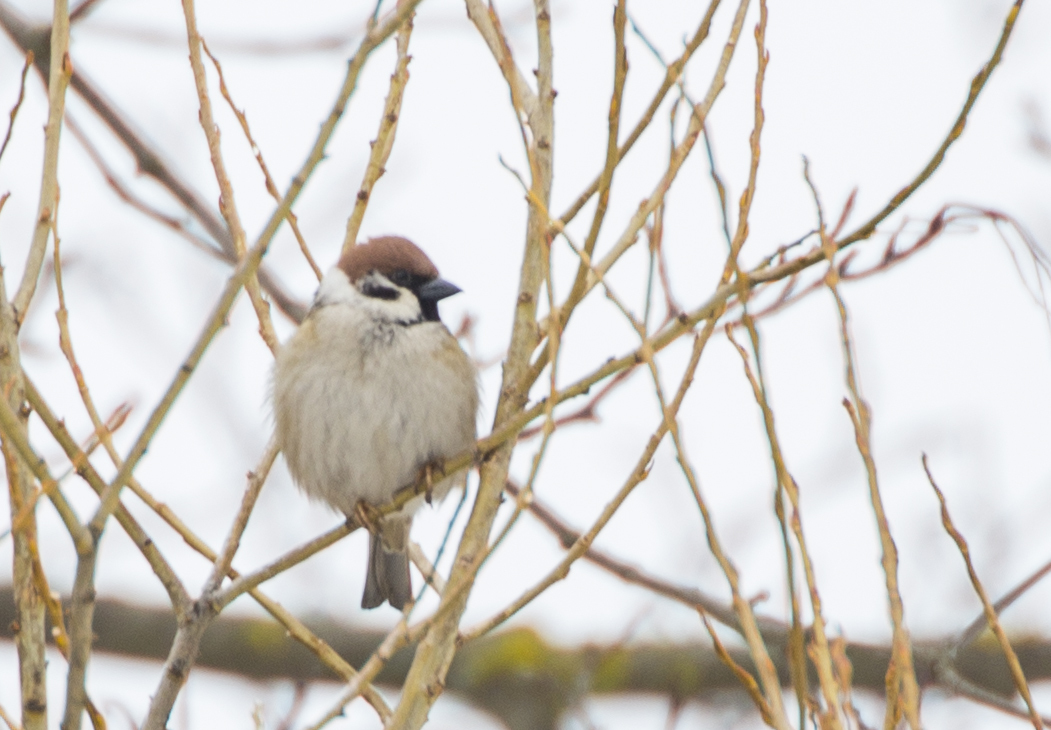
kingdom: Animalia
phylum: Chordata
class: Aves
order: Passeriformes
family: Passeridae
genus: Passer
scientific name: Passer montanus
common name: Eurasian tree sparrow
